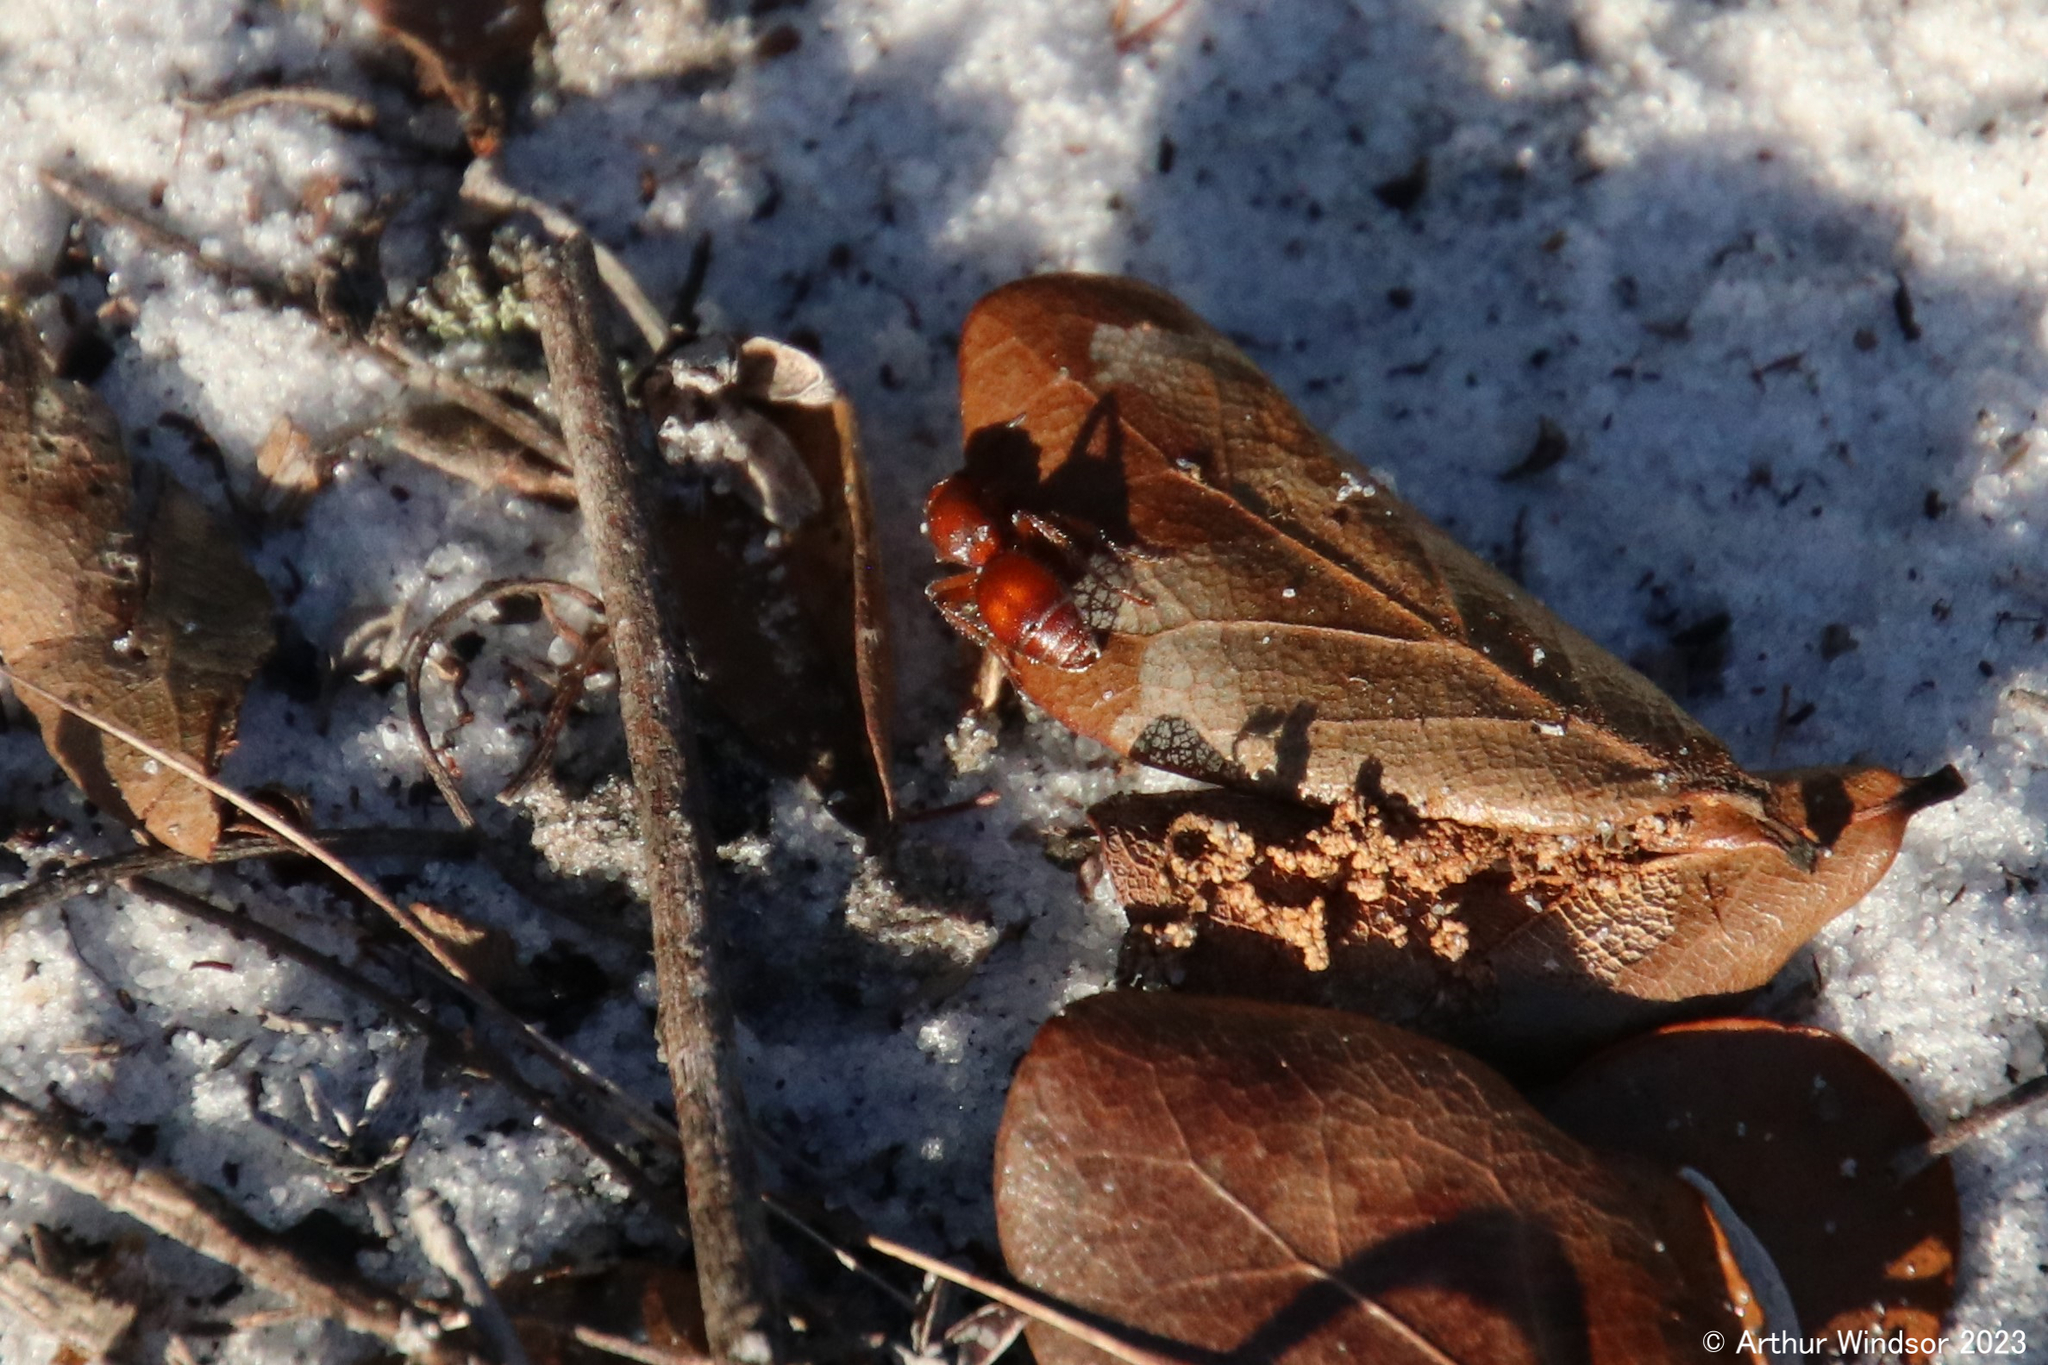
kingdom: Animalia
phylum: Arthropoda
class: Insecta
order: Hymenoptera
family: Mutillidae
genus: Dasymutilla
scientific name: Dasymutilla
